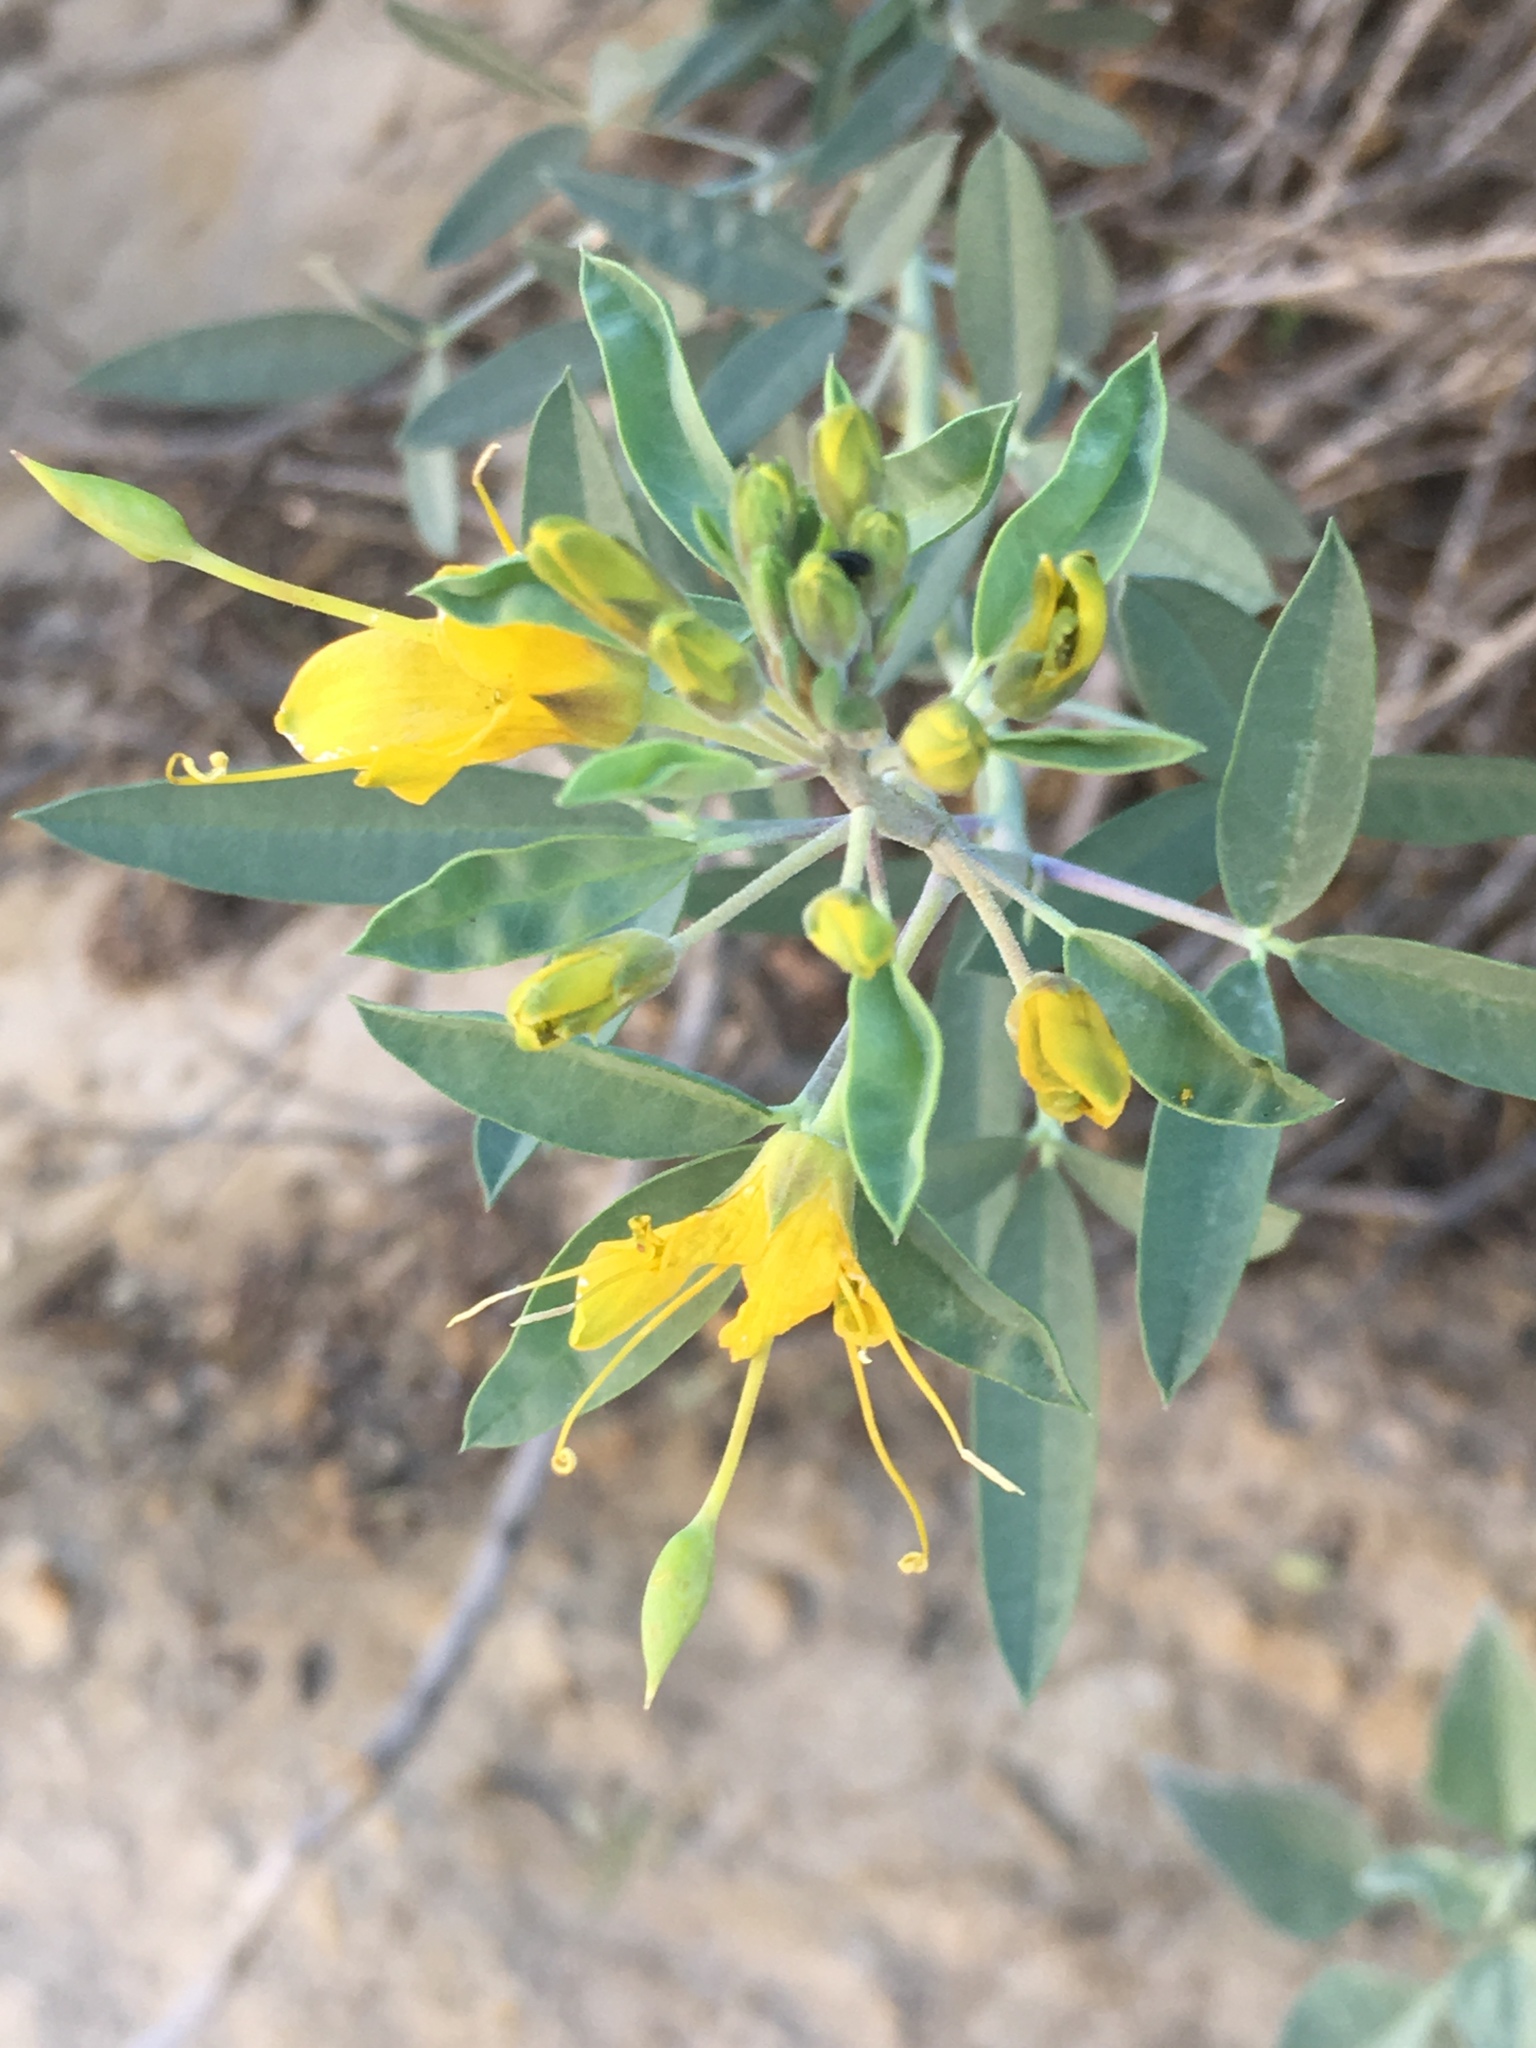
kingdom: Plantae
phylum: Tracheophyta
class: Magnoliopsida
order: Brassicales
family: Cleomaceae
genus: Cleomella
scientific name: Cleomella arborea
